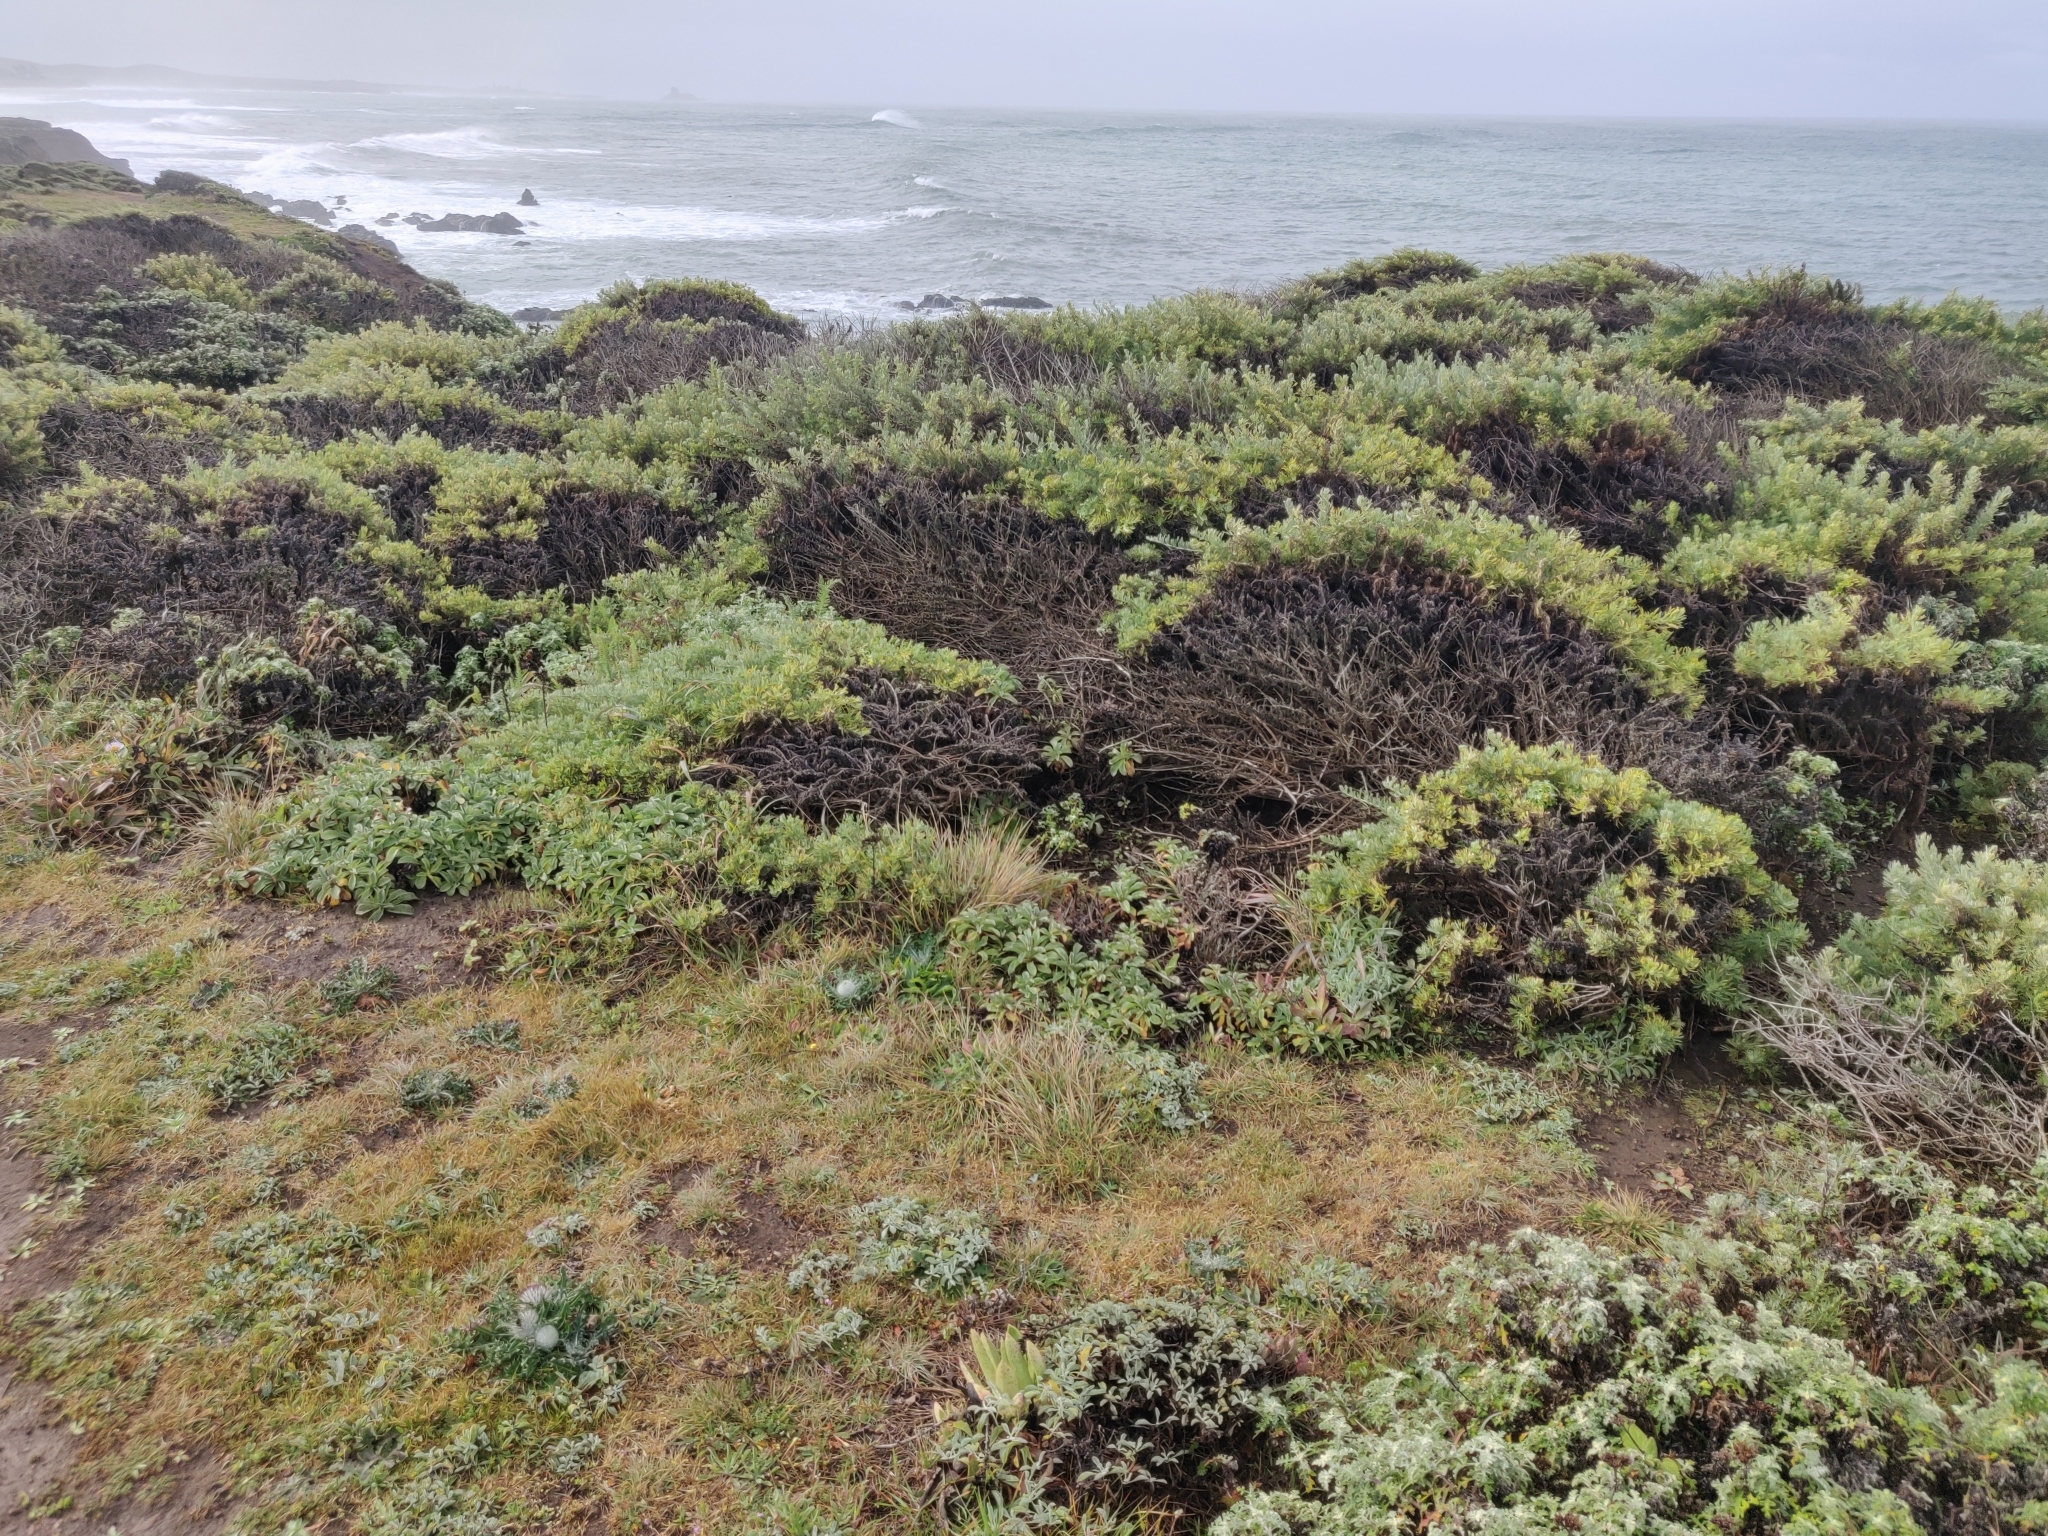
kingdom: Plantae
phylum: Tracheophyta
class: Magnoliopsida
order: Asterales
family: Asteraceae
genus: Cirsium
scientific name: Cirsium occidentale
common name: Western thistle
